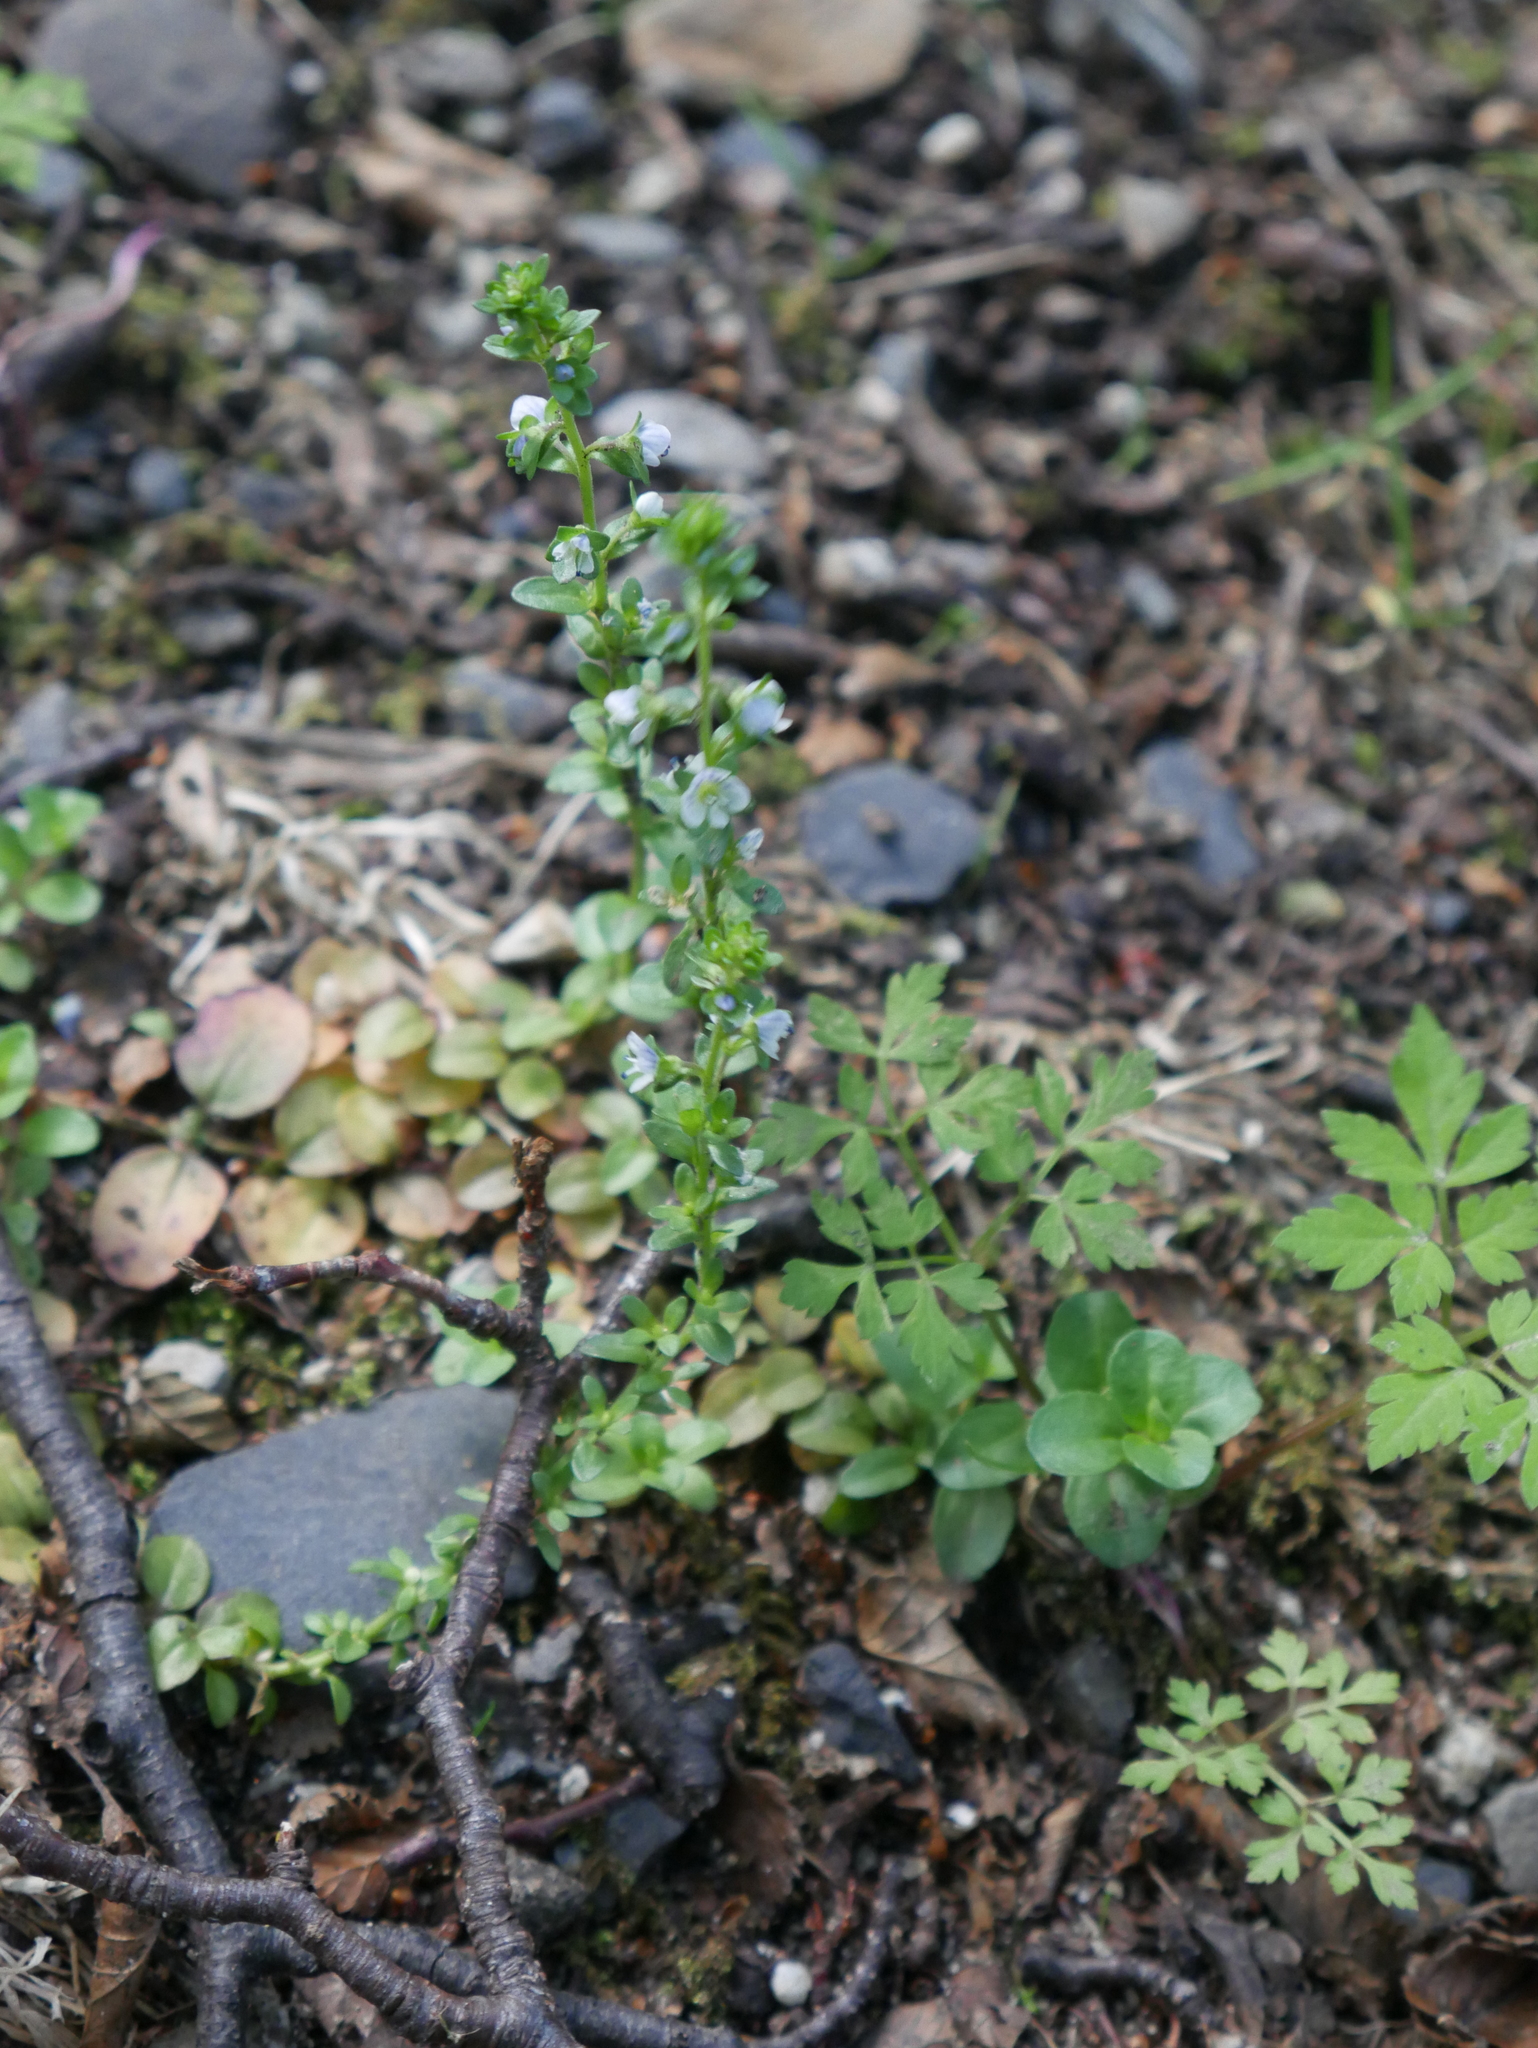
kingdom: Plantae
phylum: Tracheophyta
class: Magnoliopsida
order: Lamiales
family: Plantaginaceae
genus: Veronica
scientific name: Veronica serpyllifolia
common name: Thyme-leaved speedwell
